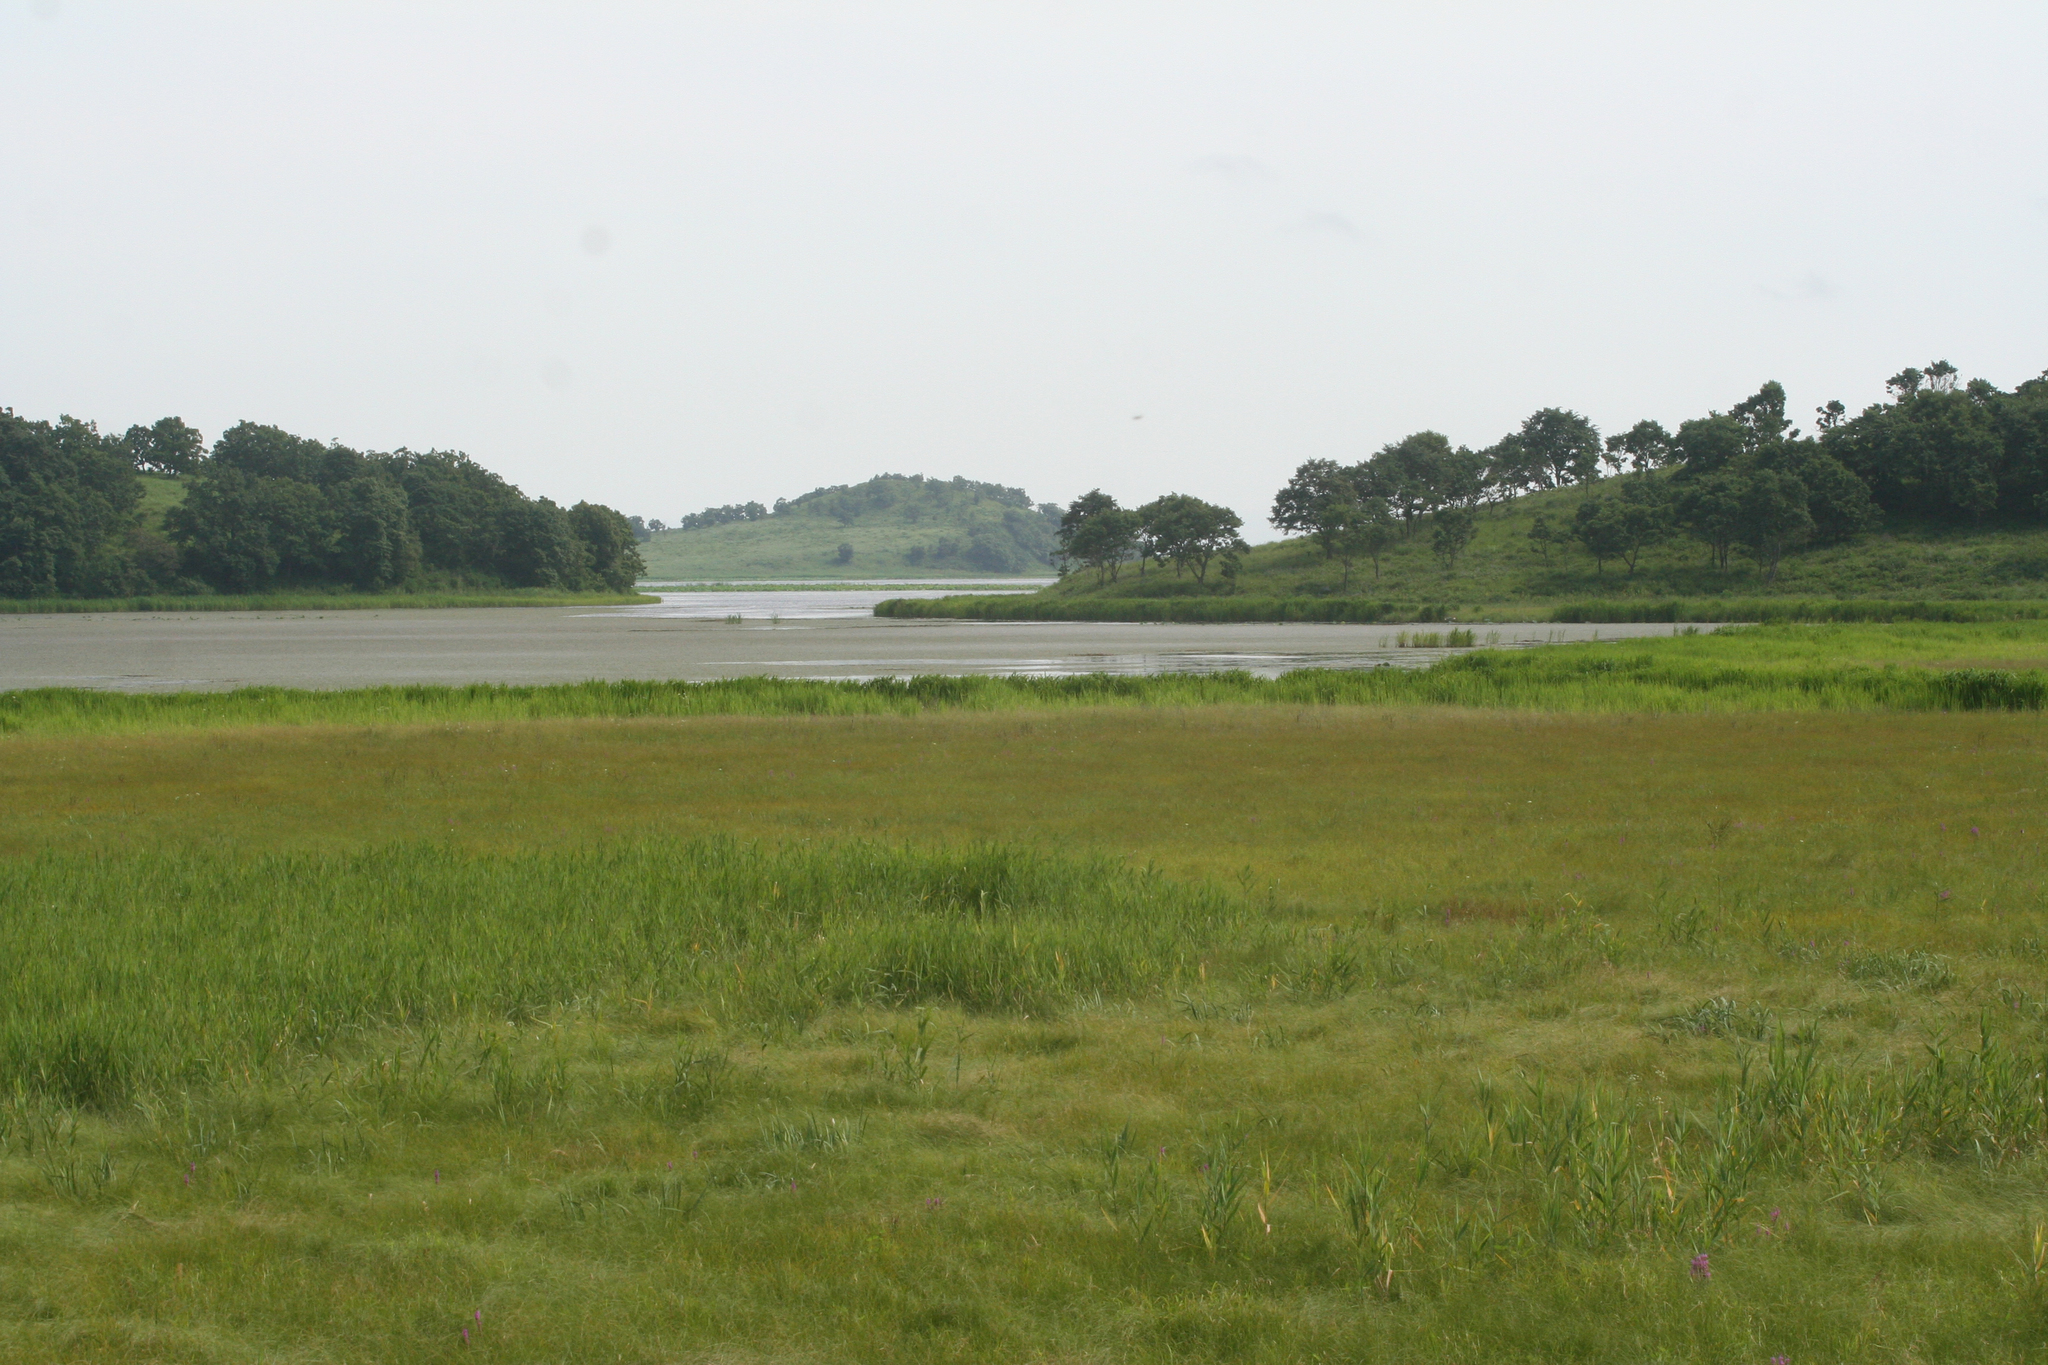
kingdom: Plantae
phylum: Tracheophyta
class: Magnoliopsida
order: Fagales
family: Fagaceae
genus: Quercus
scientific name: Quercus dentata
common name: Daimyo oak
